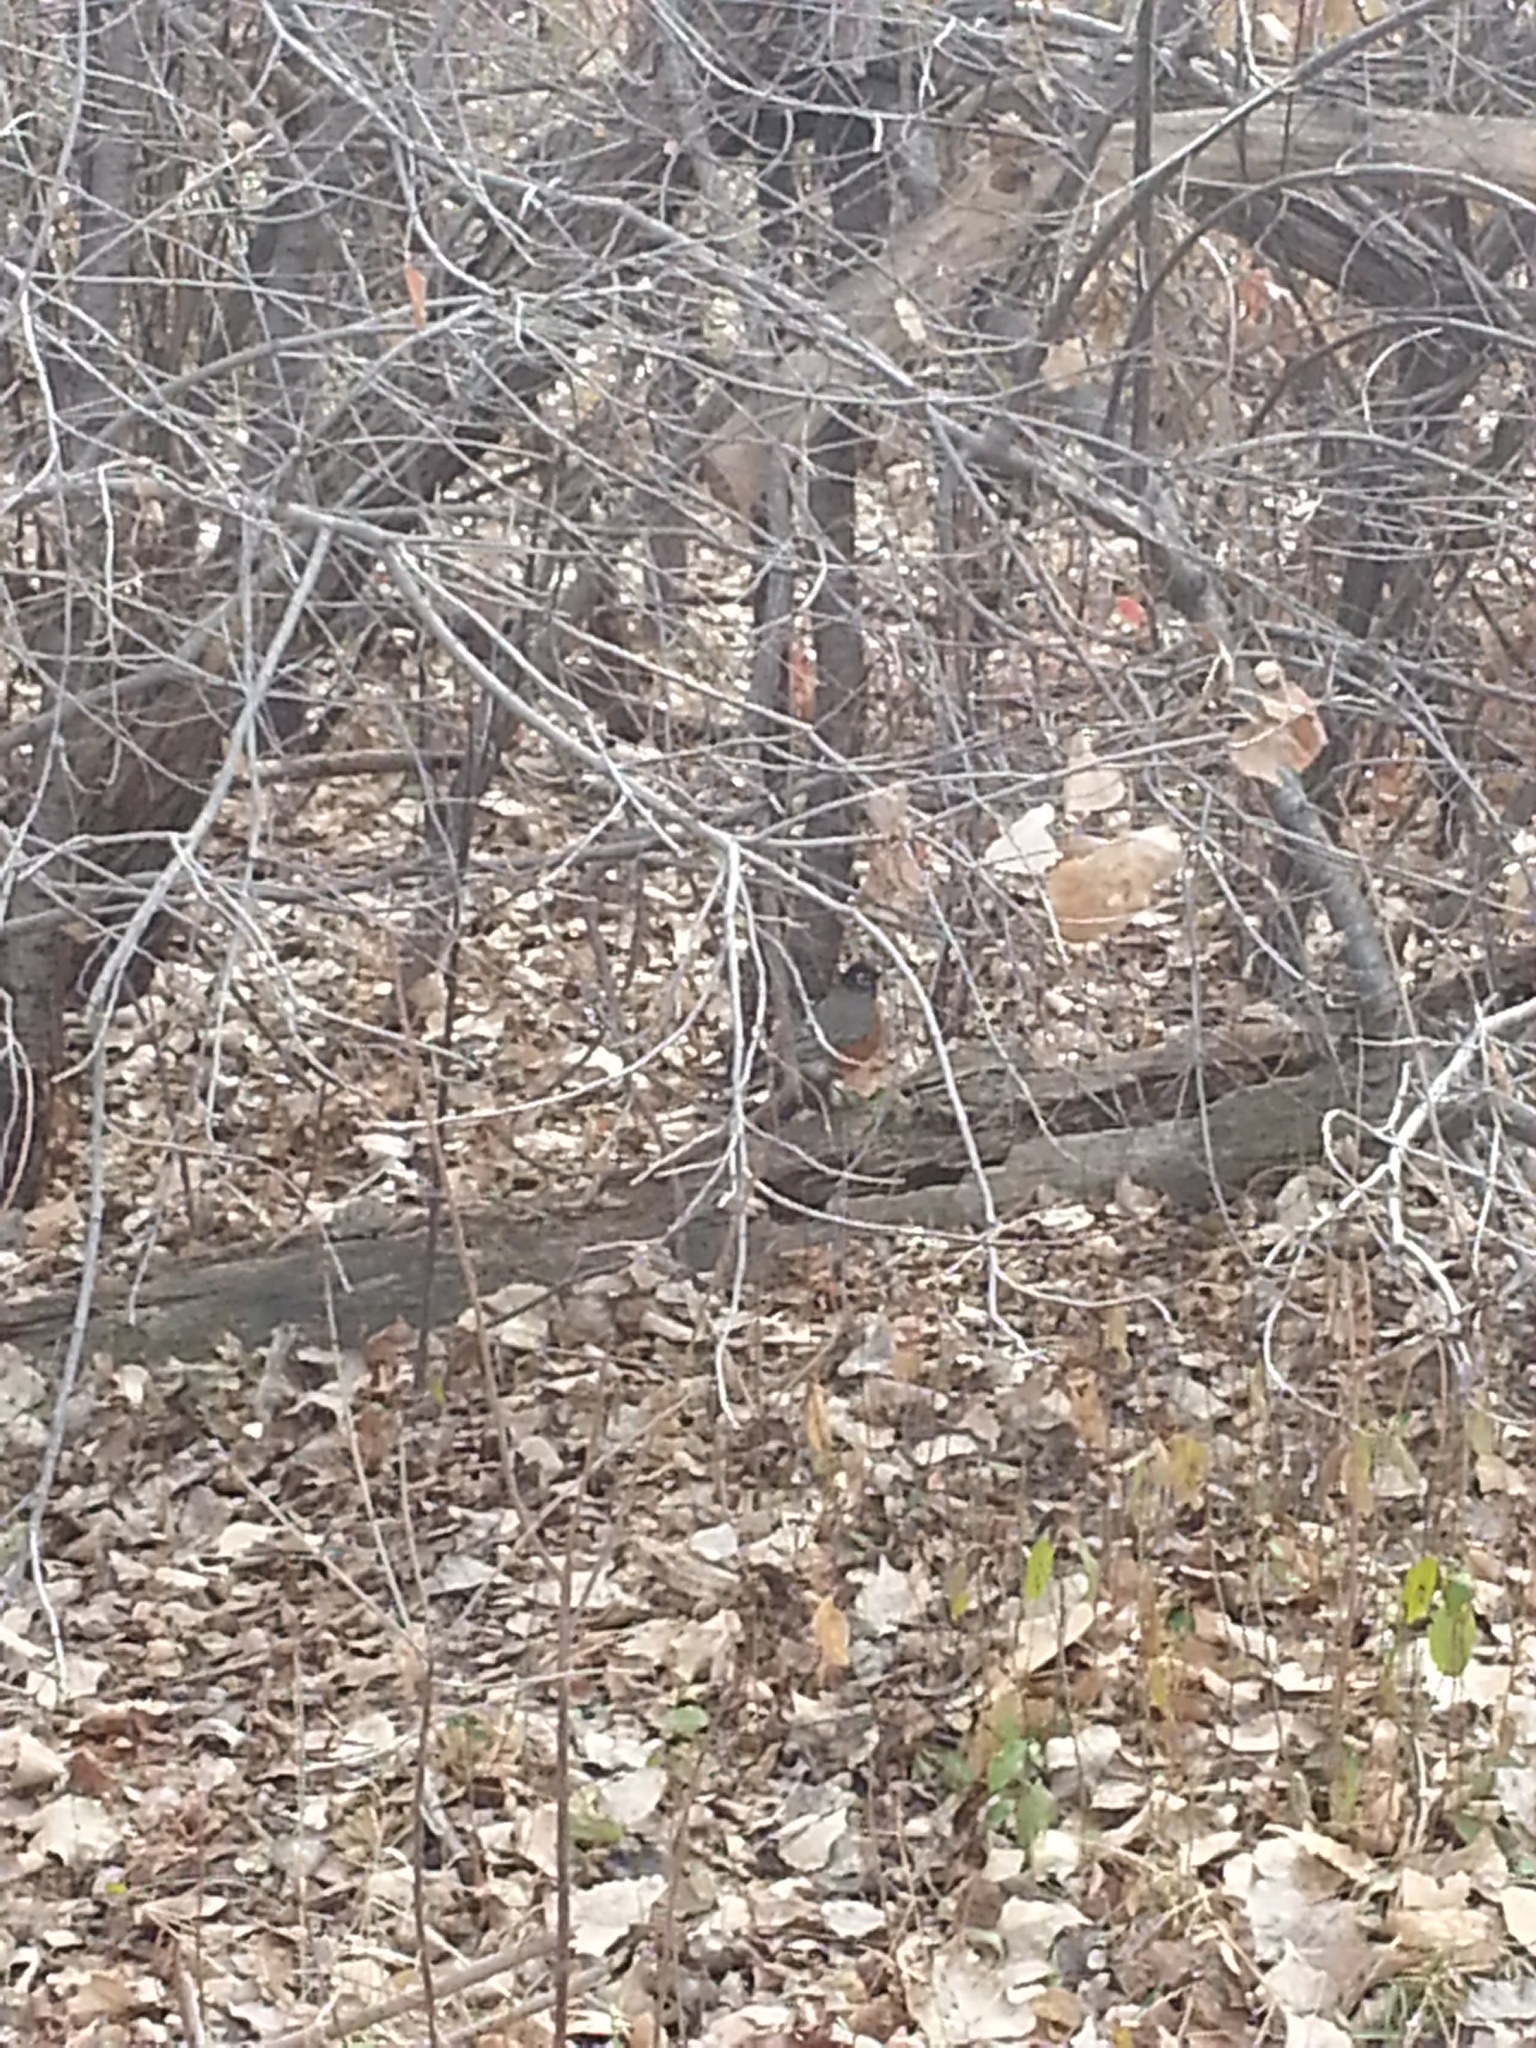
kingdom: Animalia
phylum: Chordata
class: Aves
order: Passeriformes
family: Turdidae
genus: Turdus
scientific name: Turdus migratorius
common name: American robin
